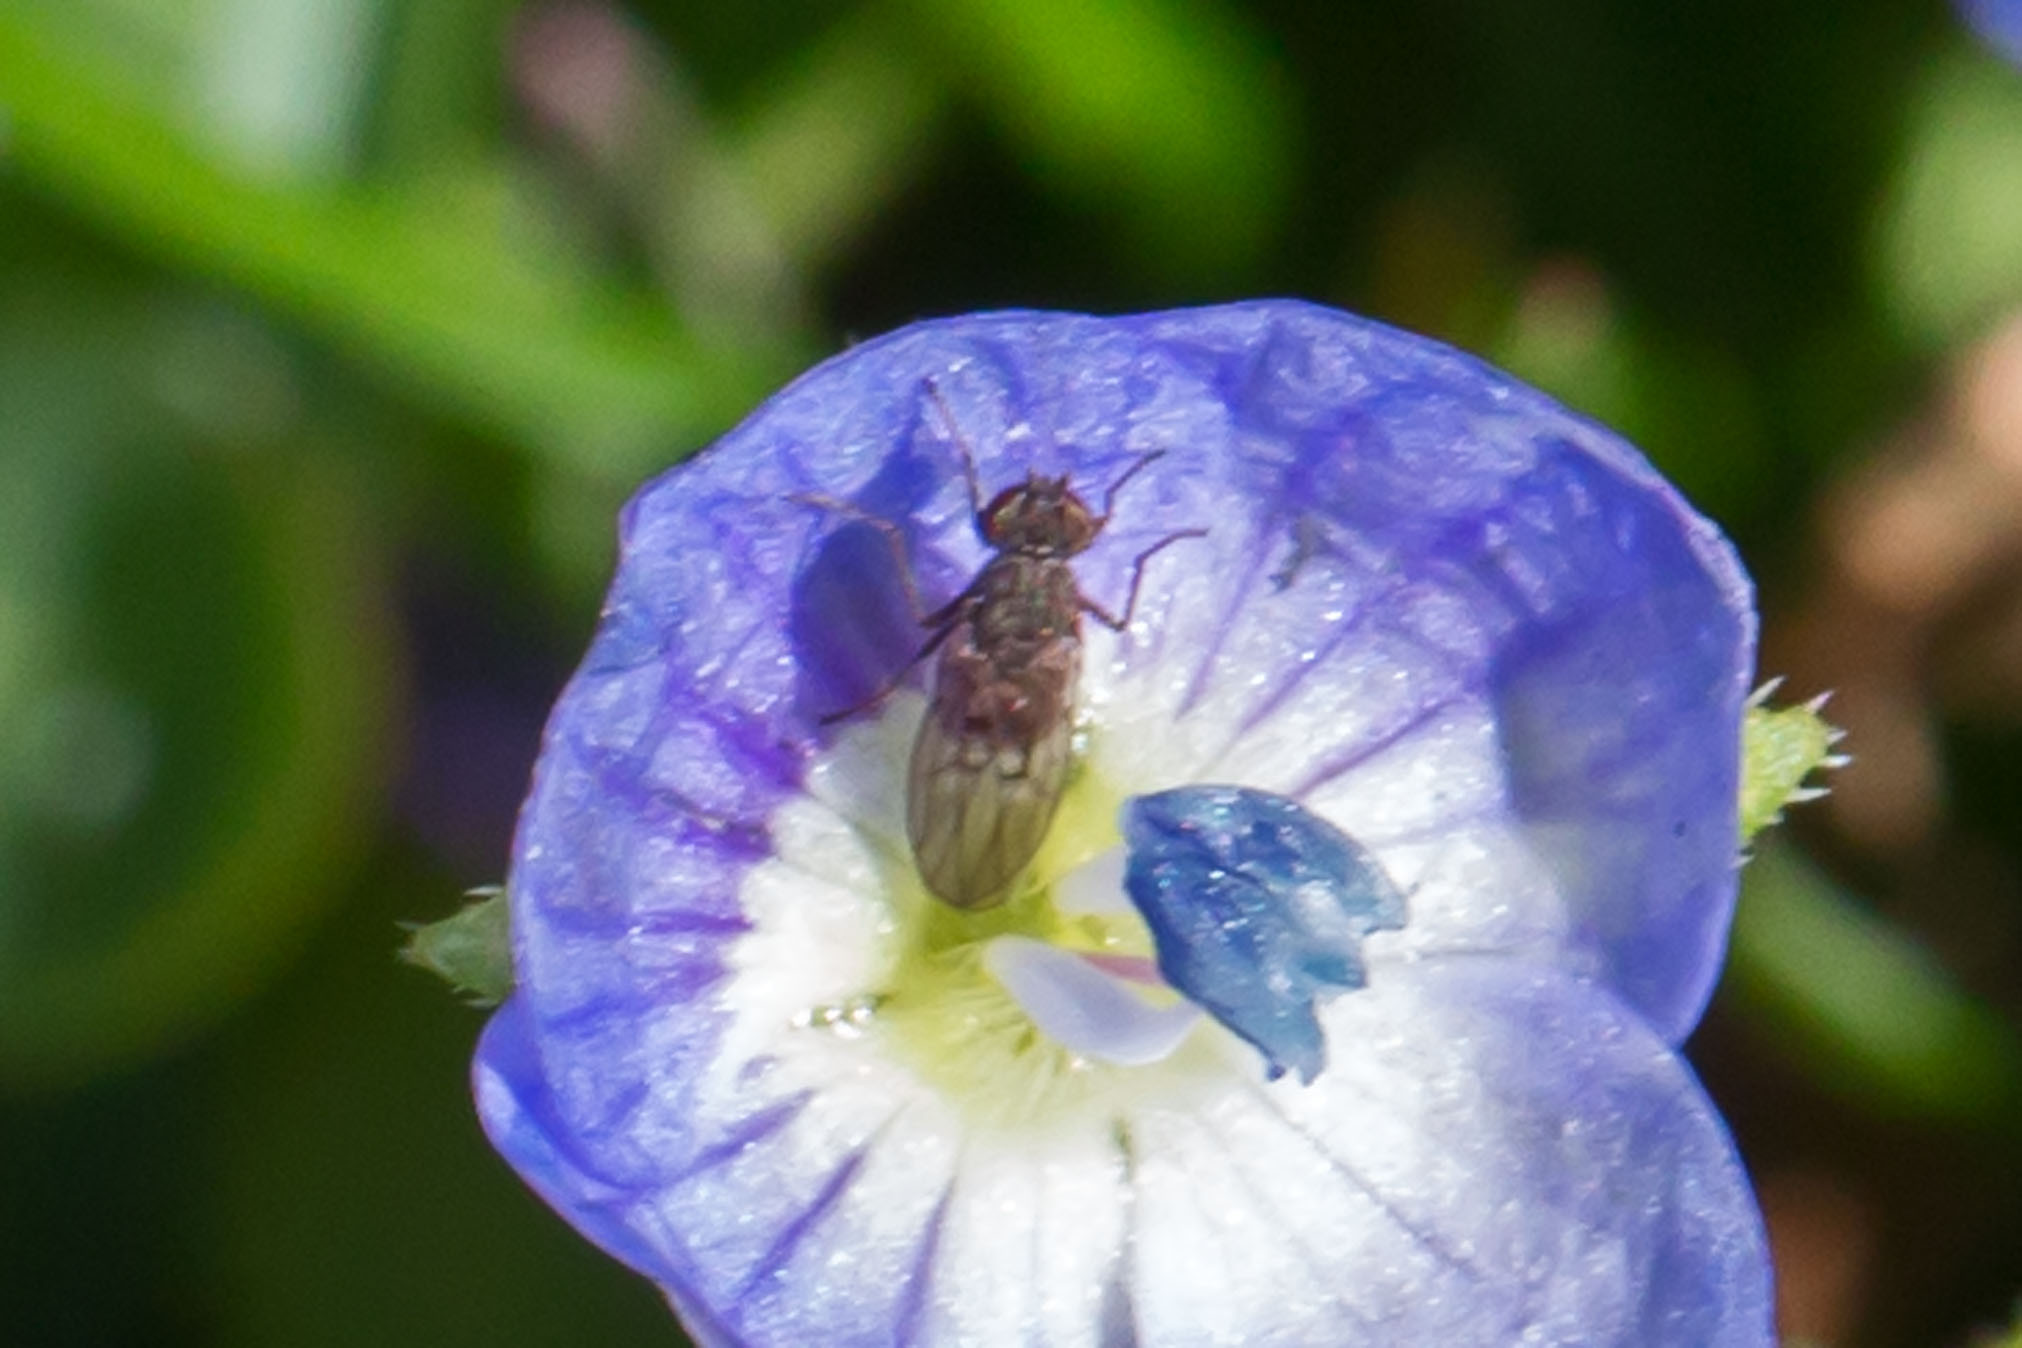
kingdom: Animalia
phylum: Arthropoda
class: Insecta
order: Diptera
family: Ephydridae
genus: Philygria
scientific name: Philygria debilis
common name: Brine fly
